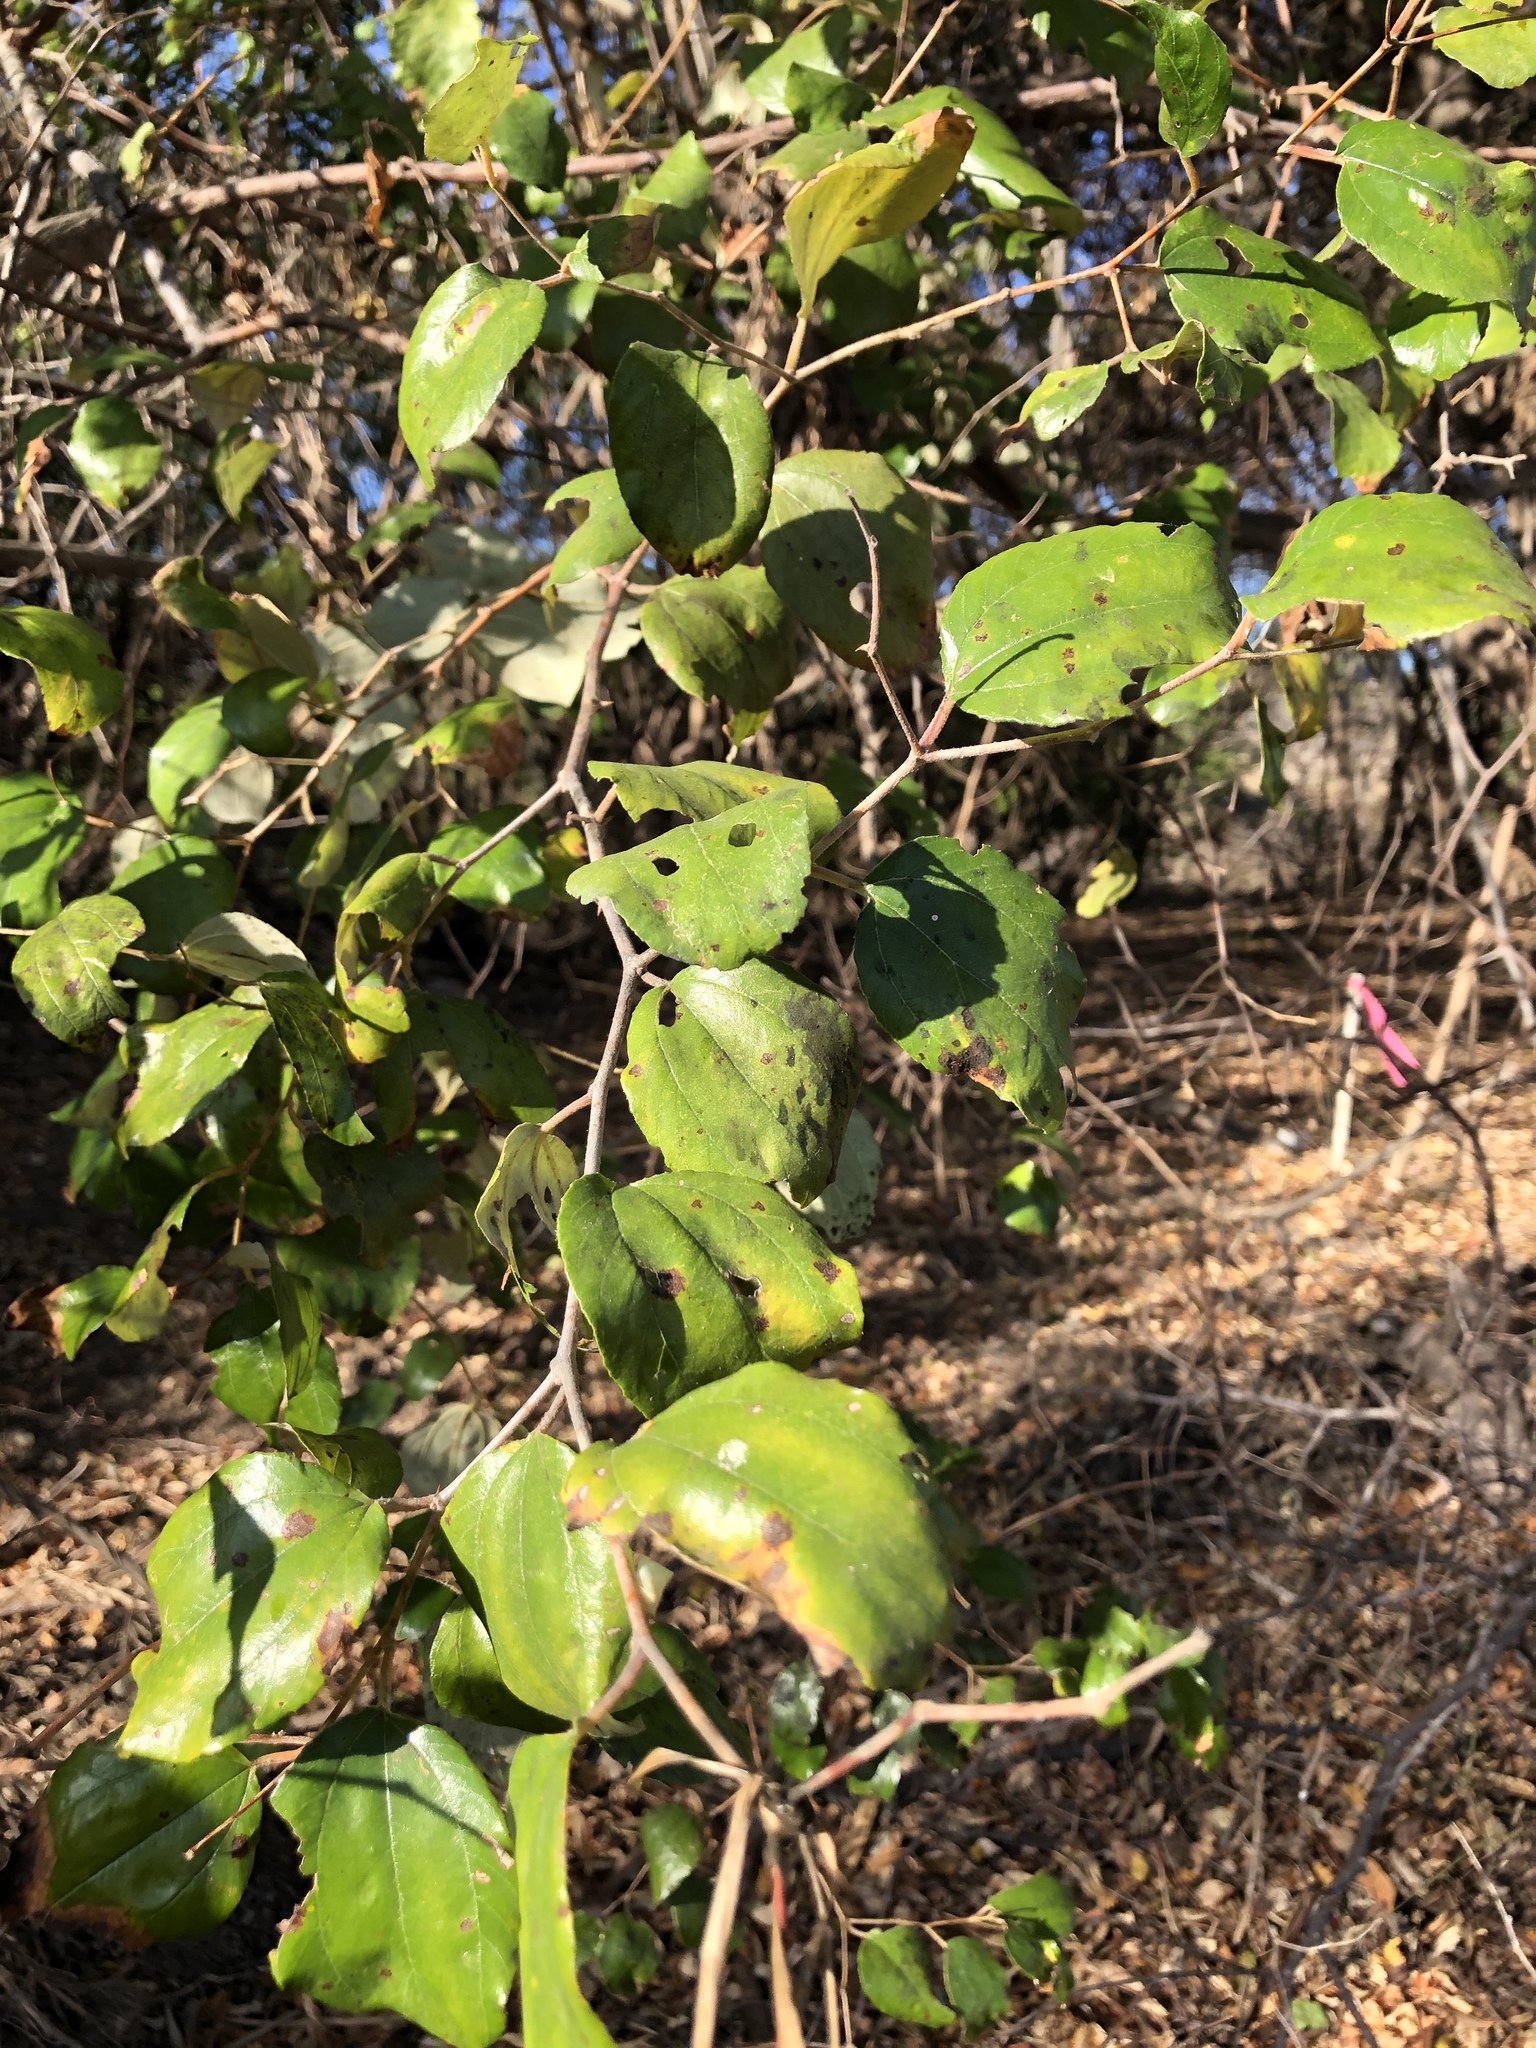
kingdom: Plantae
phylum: Tracheophyta
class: Magnoliopsida
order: Rosales
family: Rhamnaceae
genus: Ziziphus
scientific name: Ziziphus mauritiana
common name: Indian jujube
